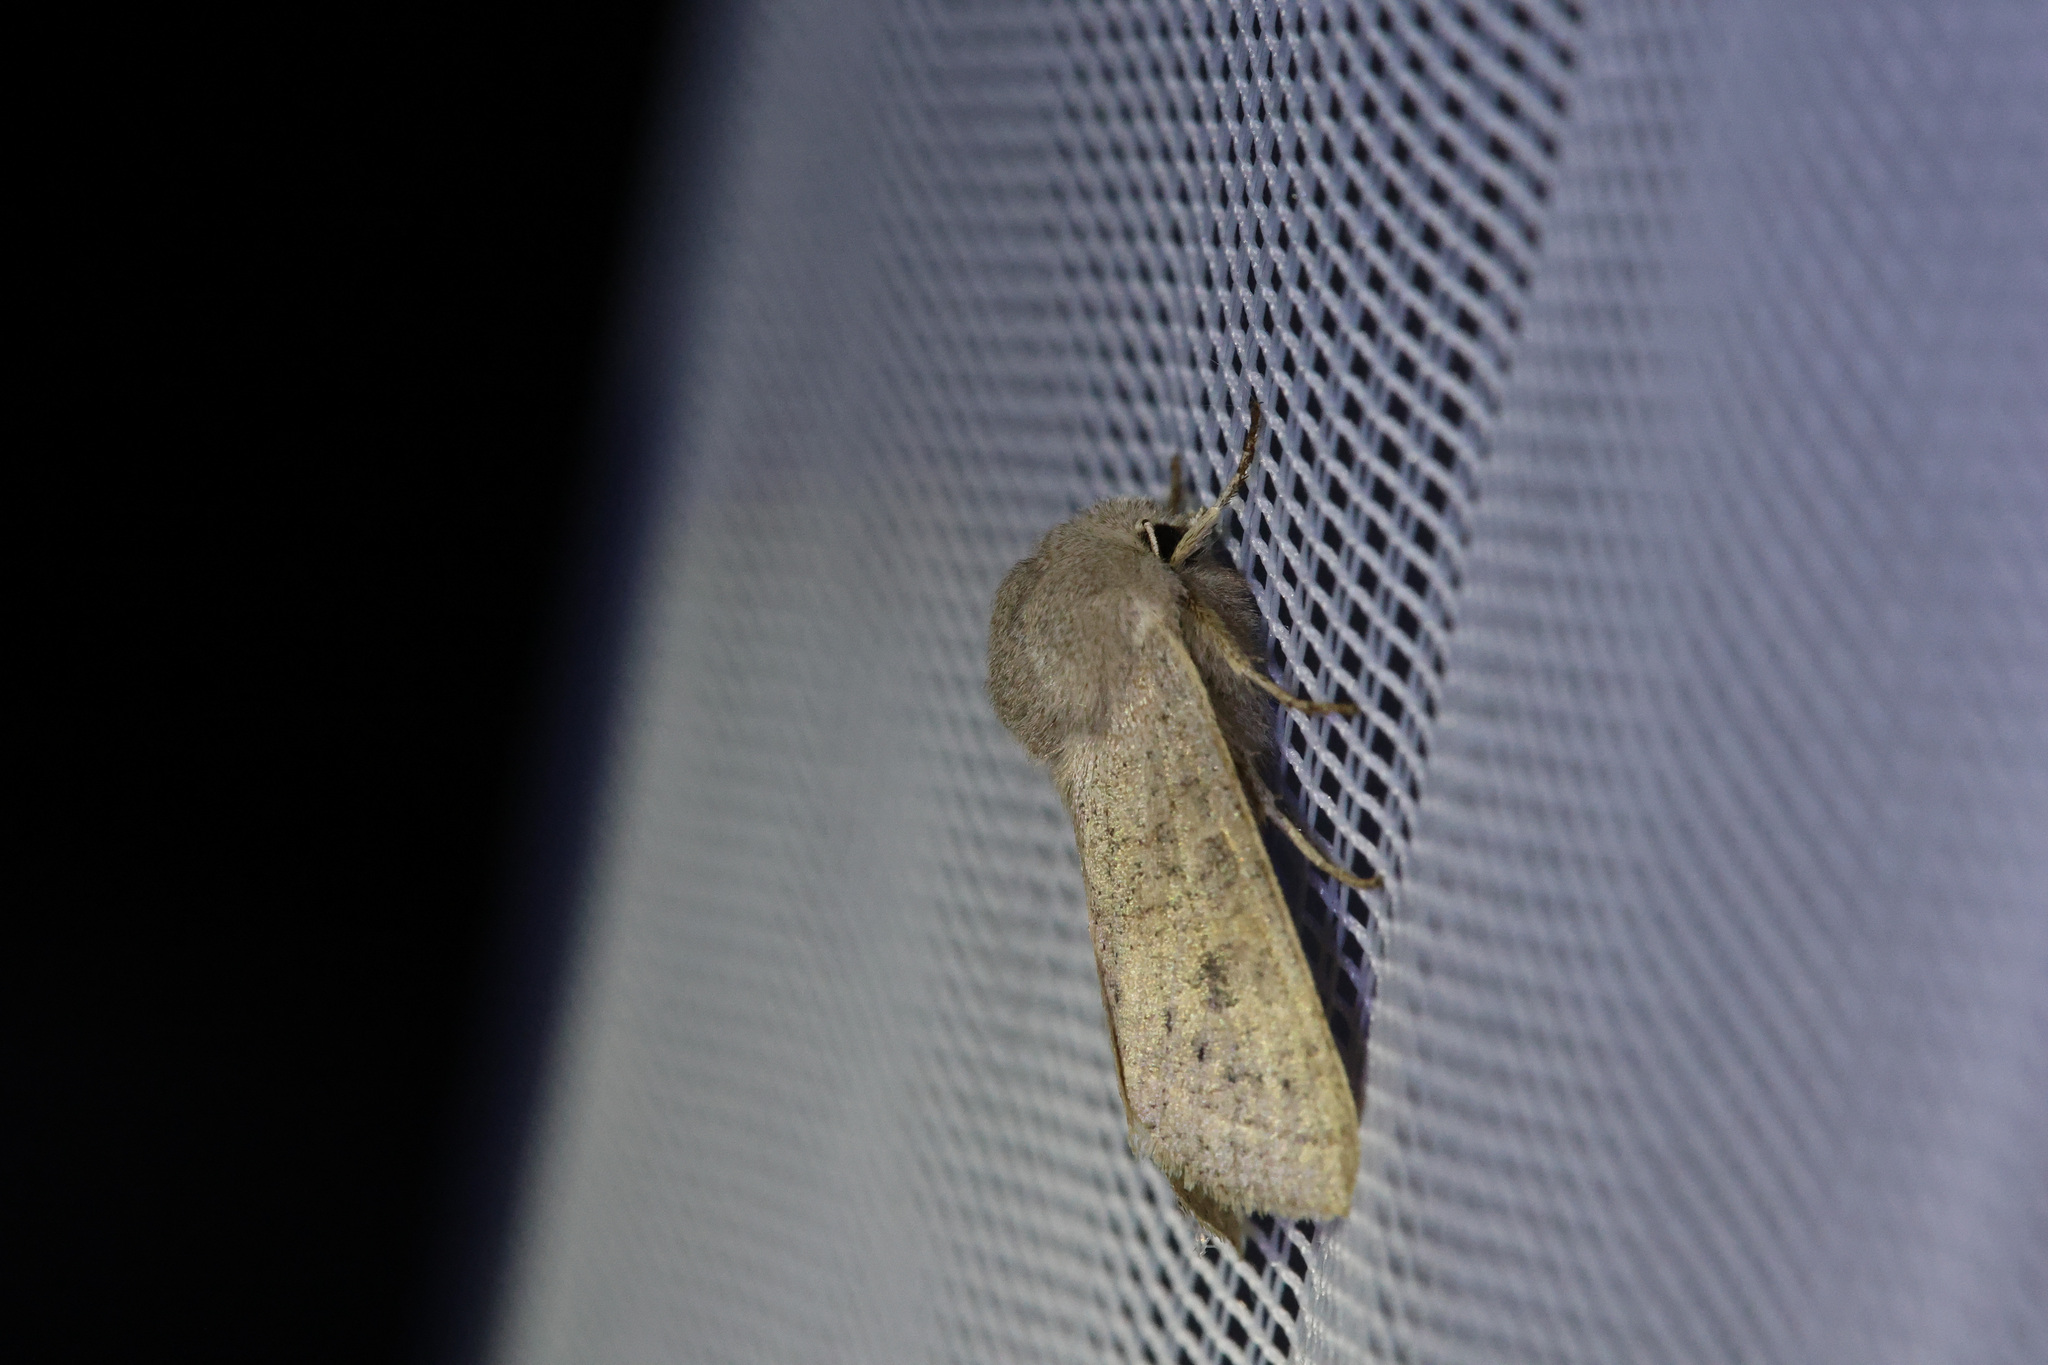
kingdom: Animalia
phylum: Arthropoda
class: Insecta
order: Lepidoptera
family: Noctuidae
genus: Orthosia
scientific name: Orthosia gracilis
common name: Powdered quaker
